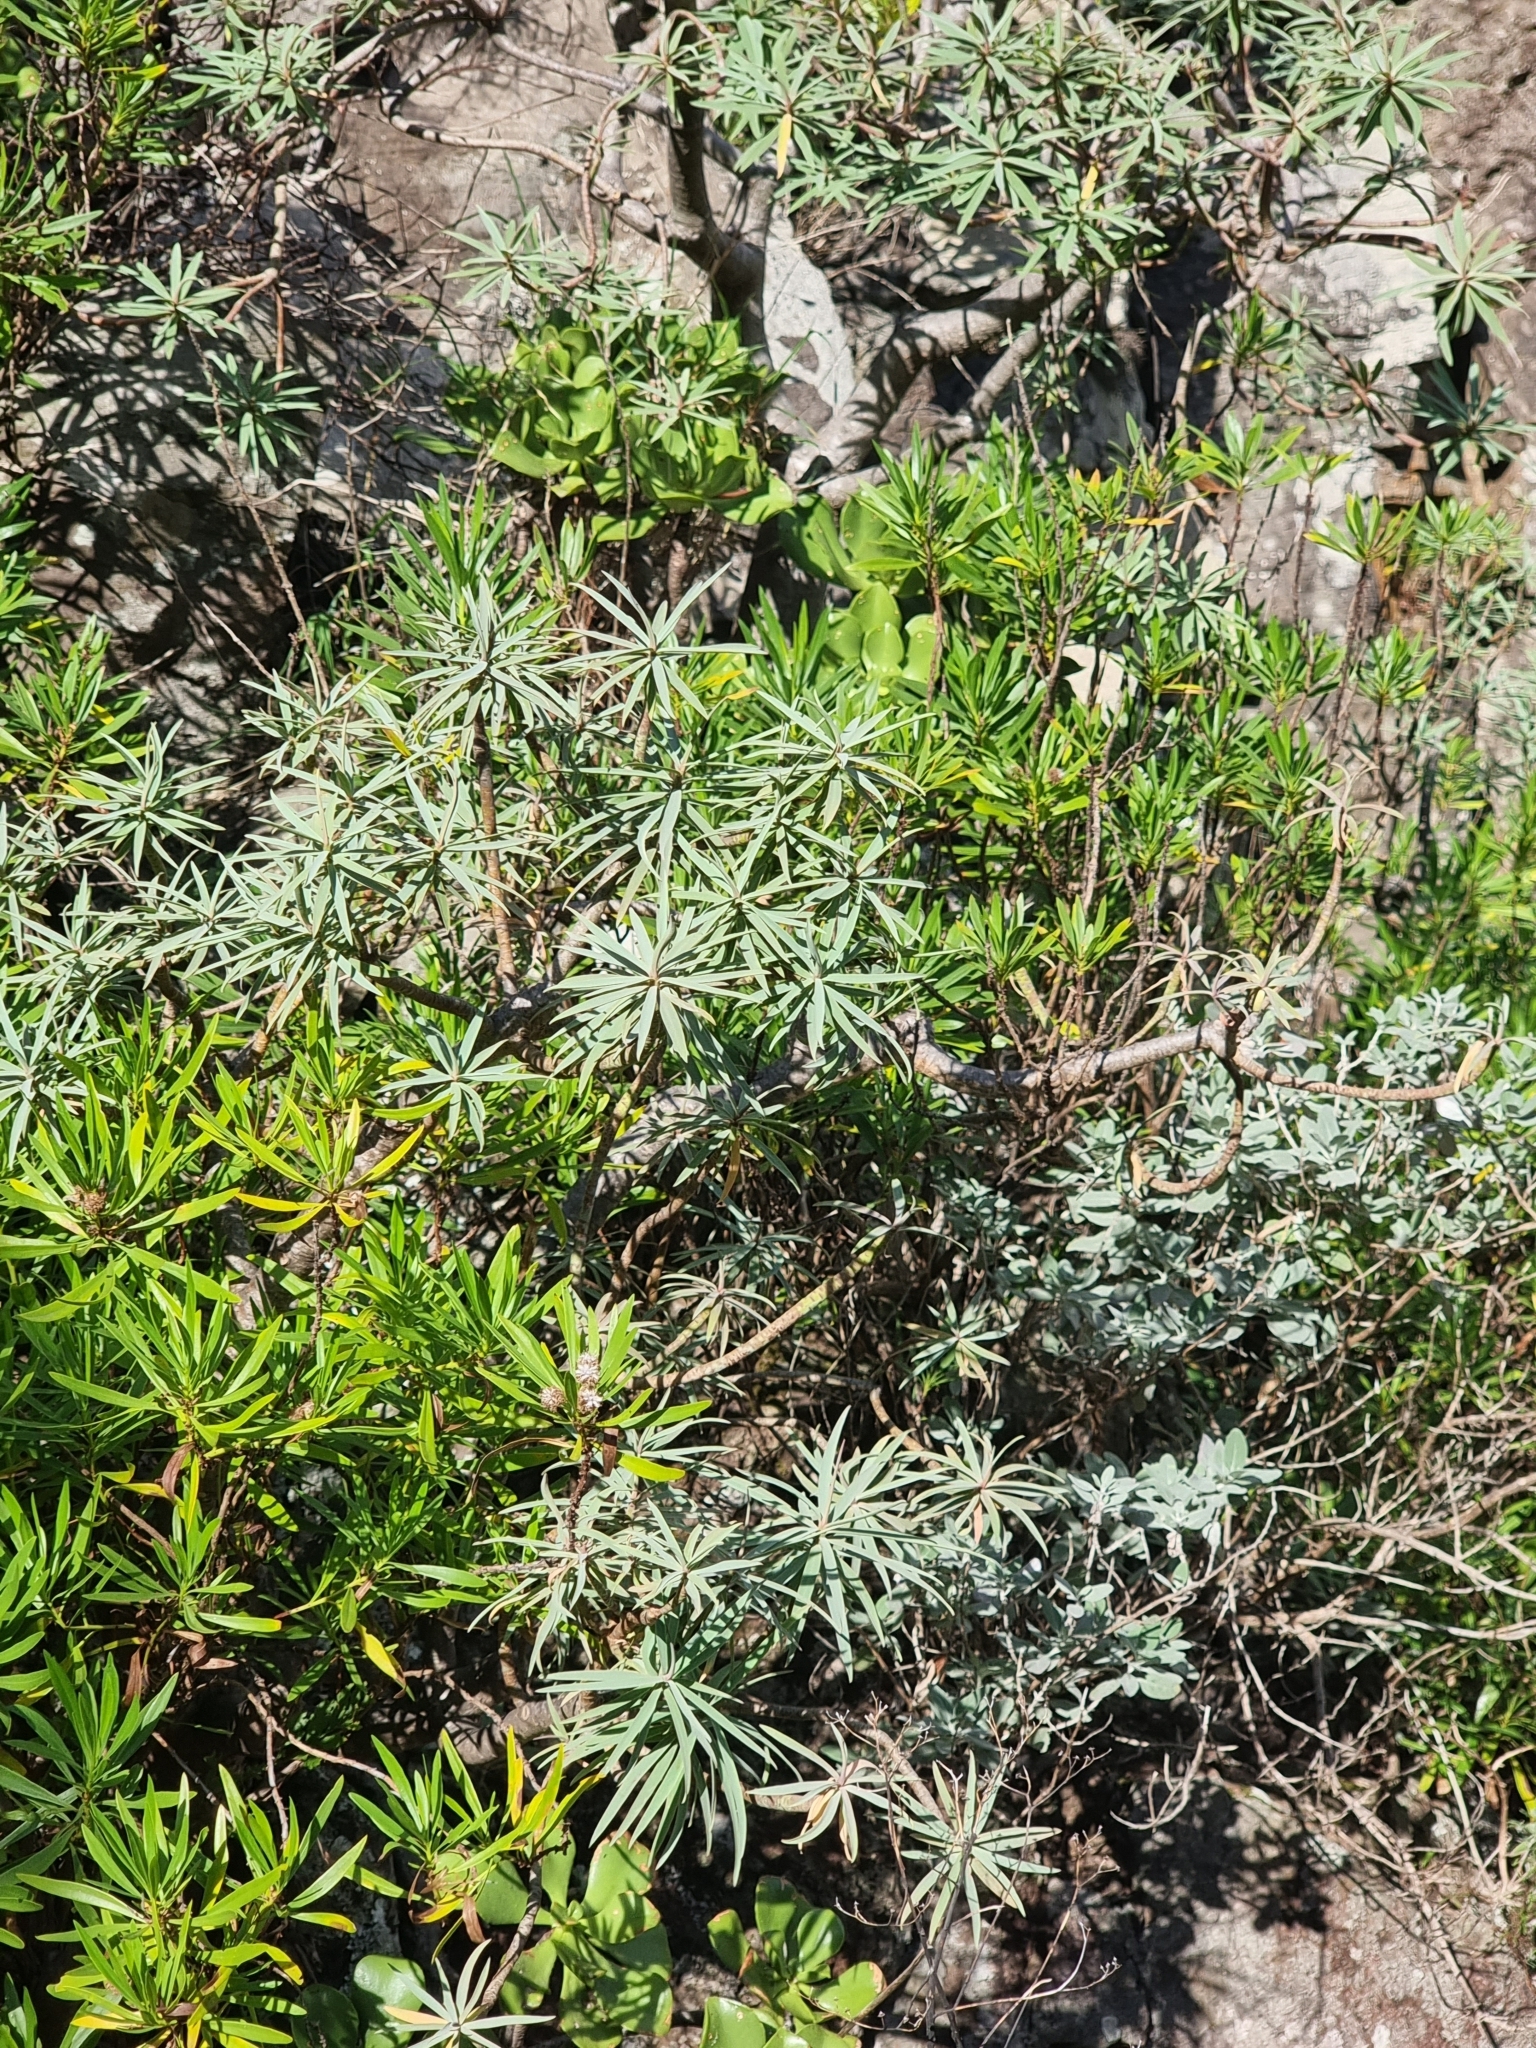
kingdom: Plantae
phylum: Tracheophyta
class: Magnoliopsida
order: Malpighiales
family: Euphorbiaceae
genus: Euphorbia
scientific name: Euphorbia piscatoria
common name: Fish-stunning spurge
